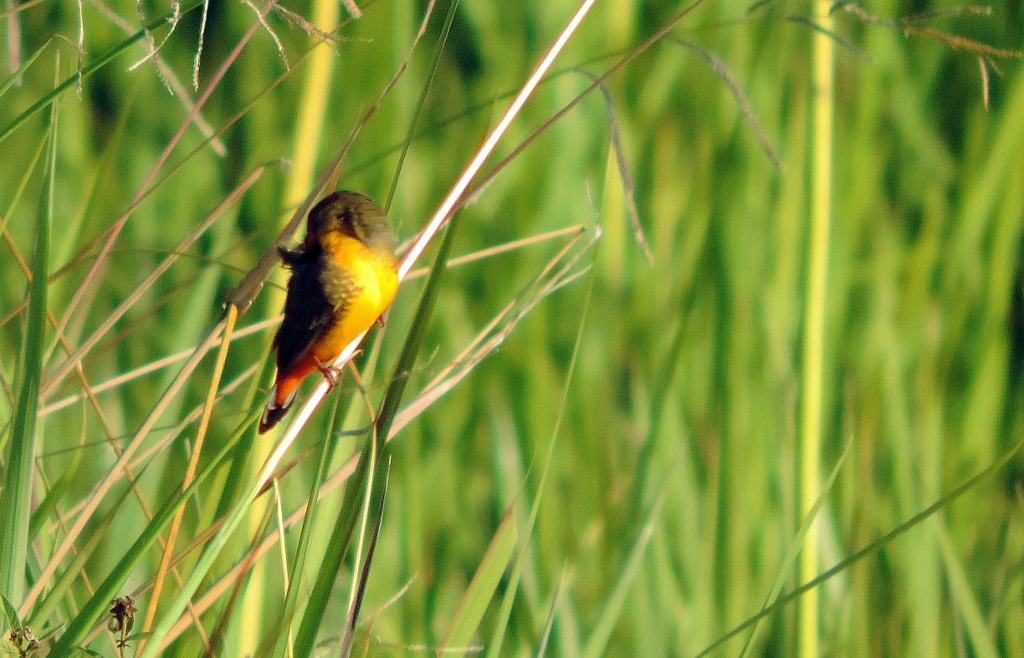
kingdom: Animalia
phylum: Chordata
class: Aves
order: Passeriformes
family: Estrildidae
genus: Amandava
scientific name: Amandava subflava
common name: Orange-breasted waxbill
